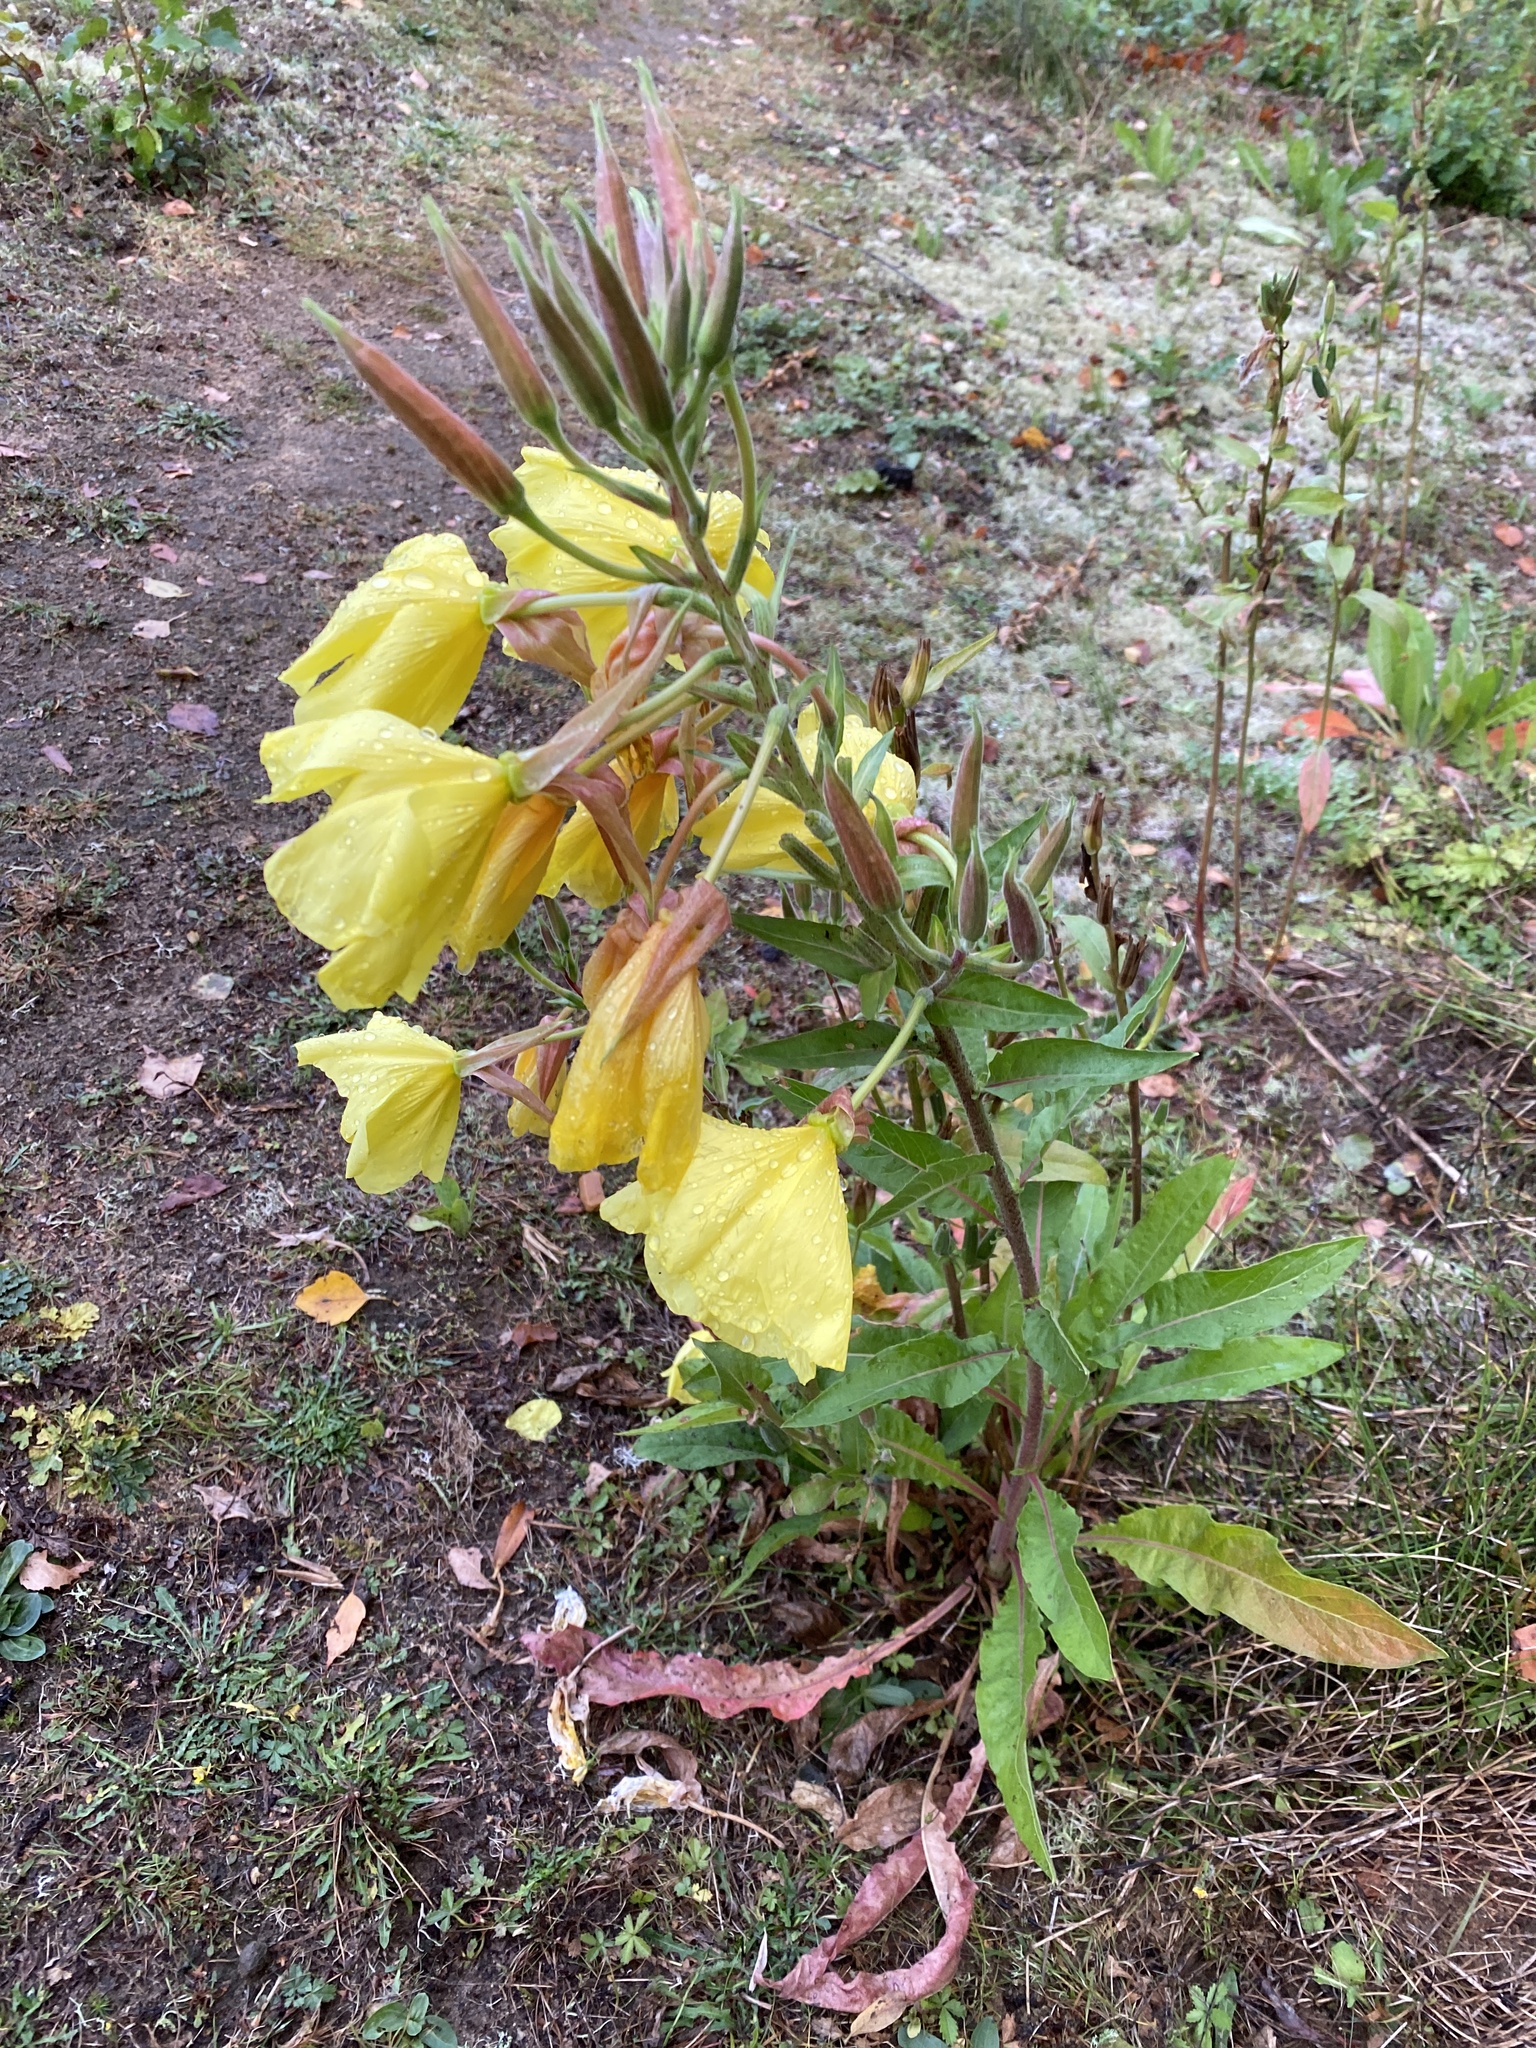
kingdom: Plantae
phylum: Tracheophyta
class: Magnoliopsida
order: Myrtales
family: Onagraceae
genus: Oenothera
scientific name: Oenothera glazioviana
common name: Large-flowered evening-primrose
